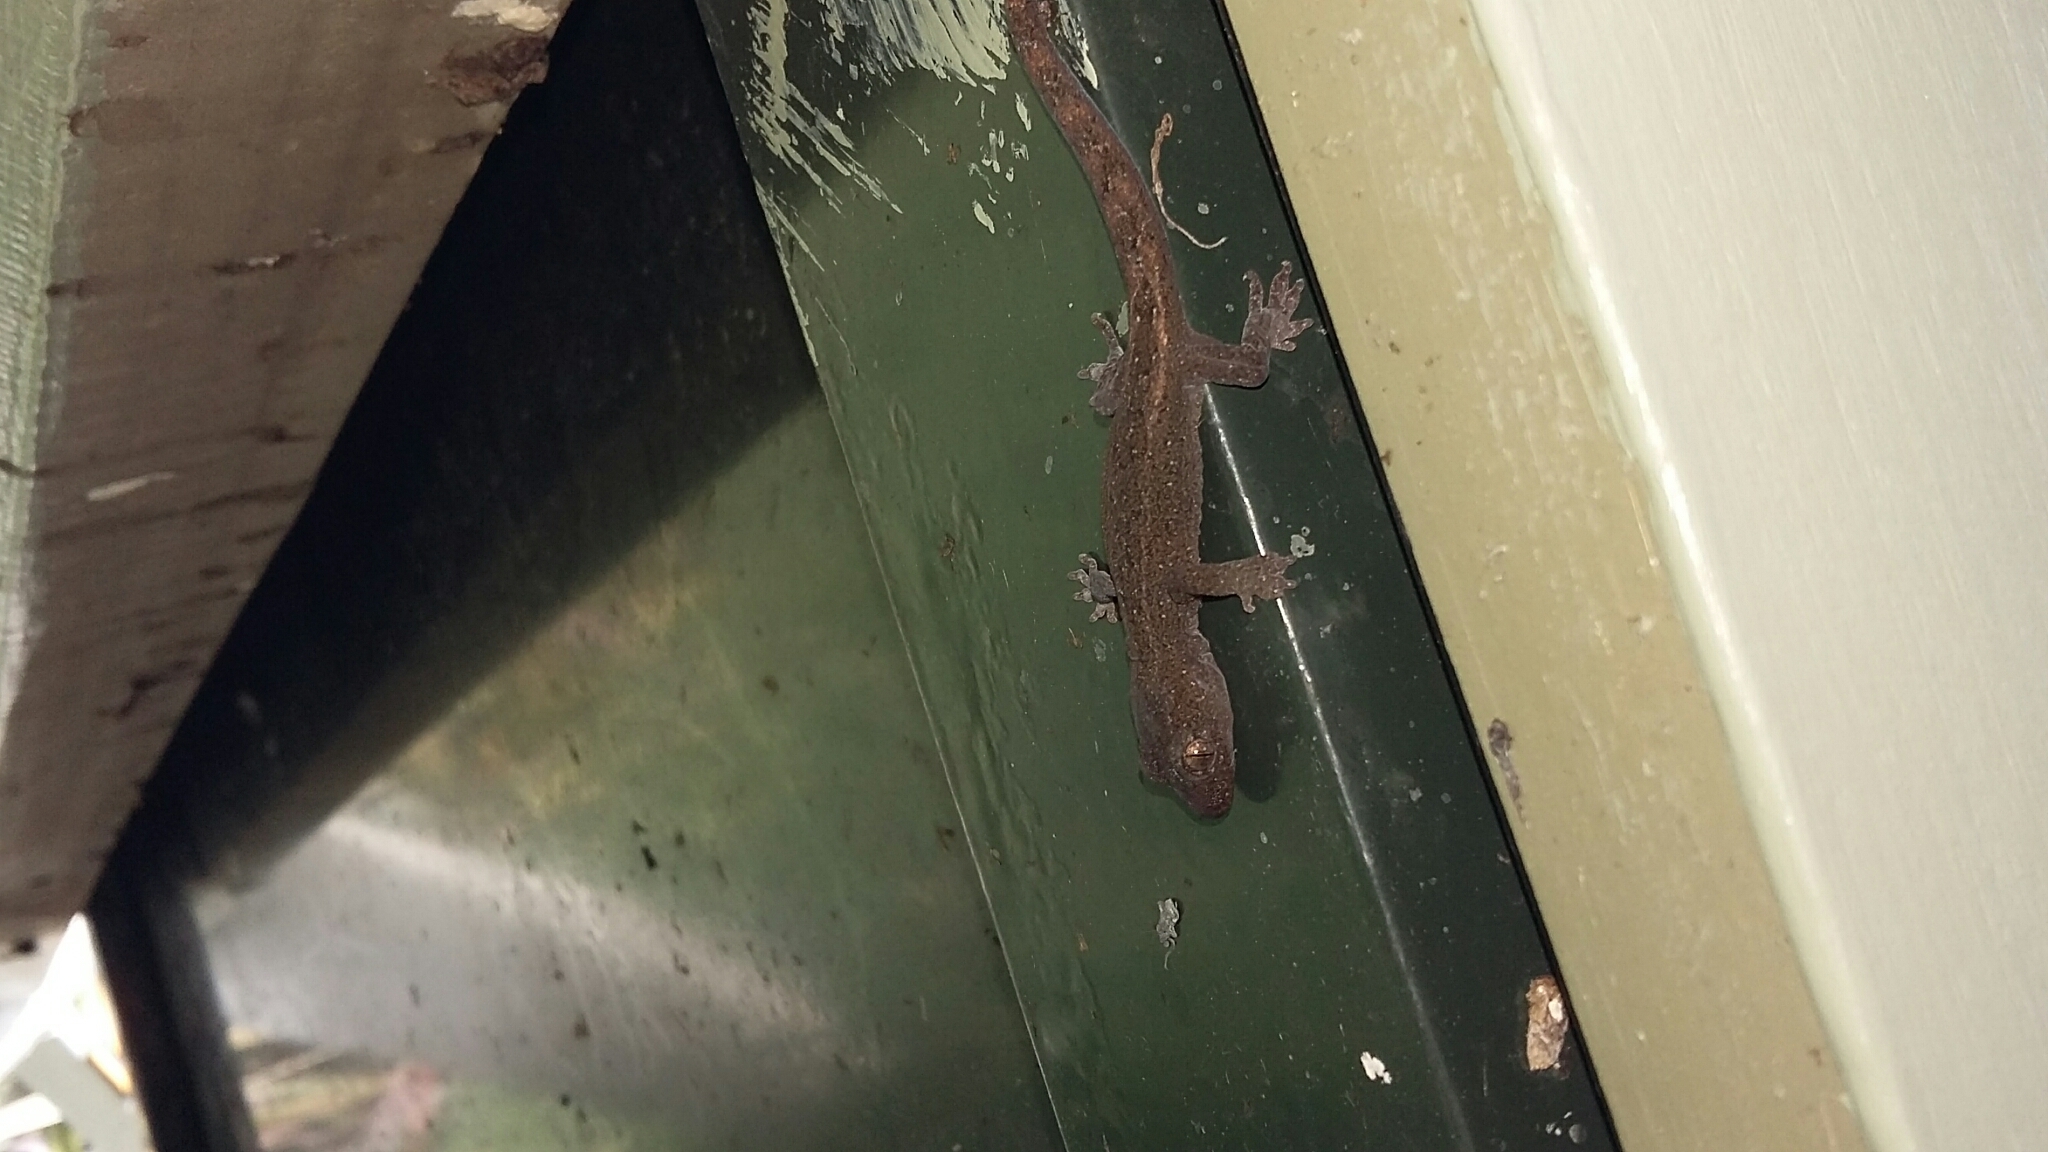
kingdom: Animalia
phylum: Chordata
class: Squamata
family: Diplodactylidae
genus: Woodworthia
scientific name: Woodworthia maculata
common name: Raukawa gecko
